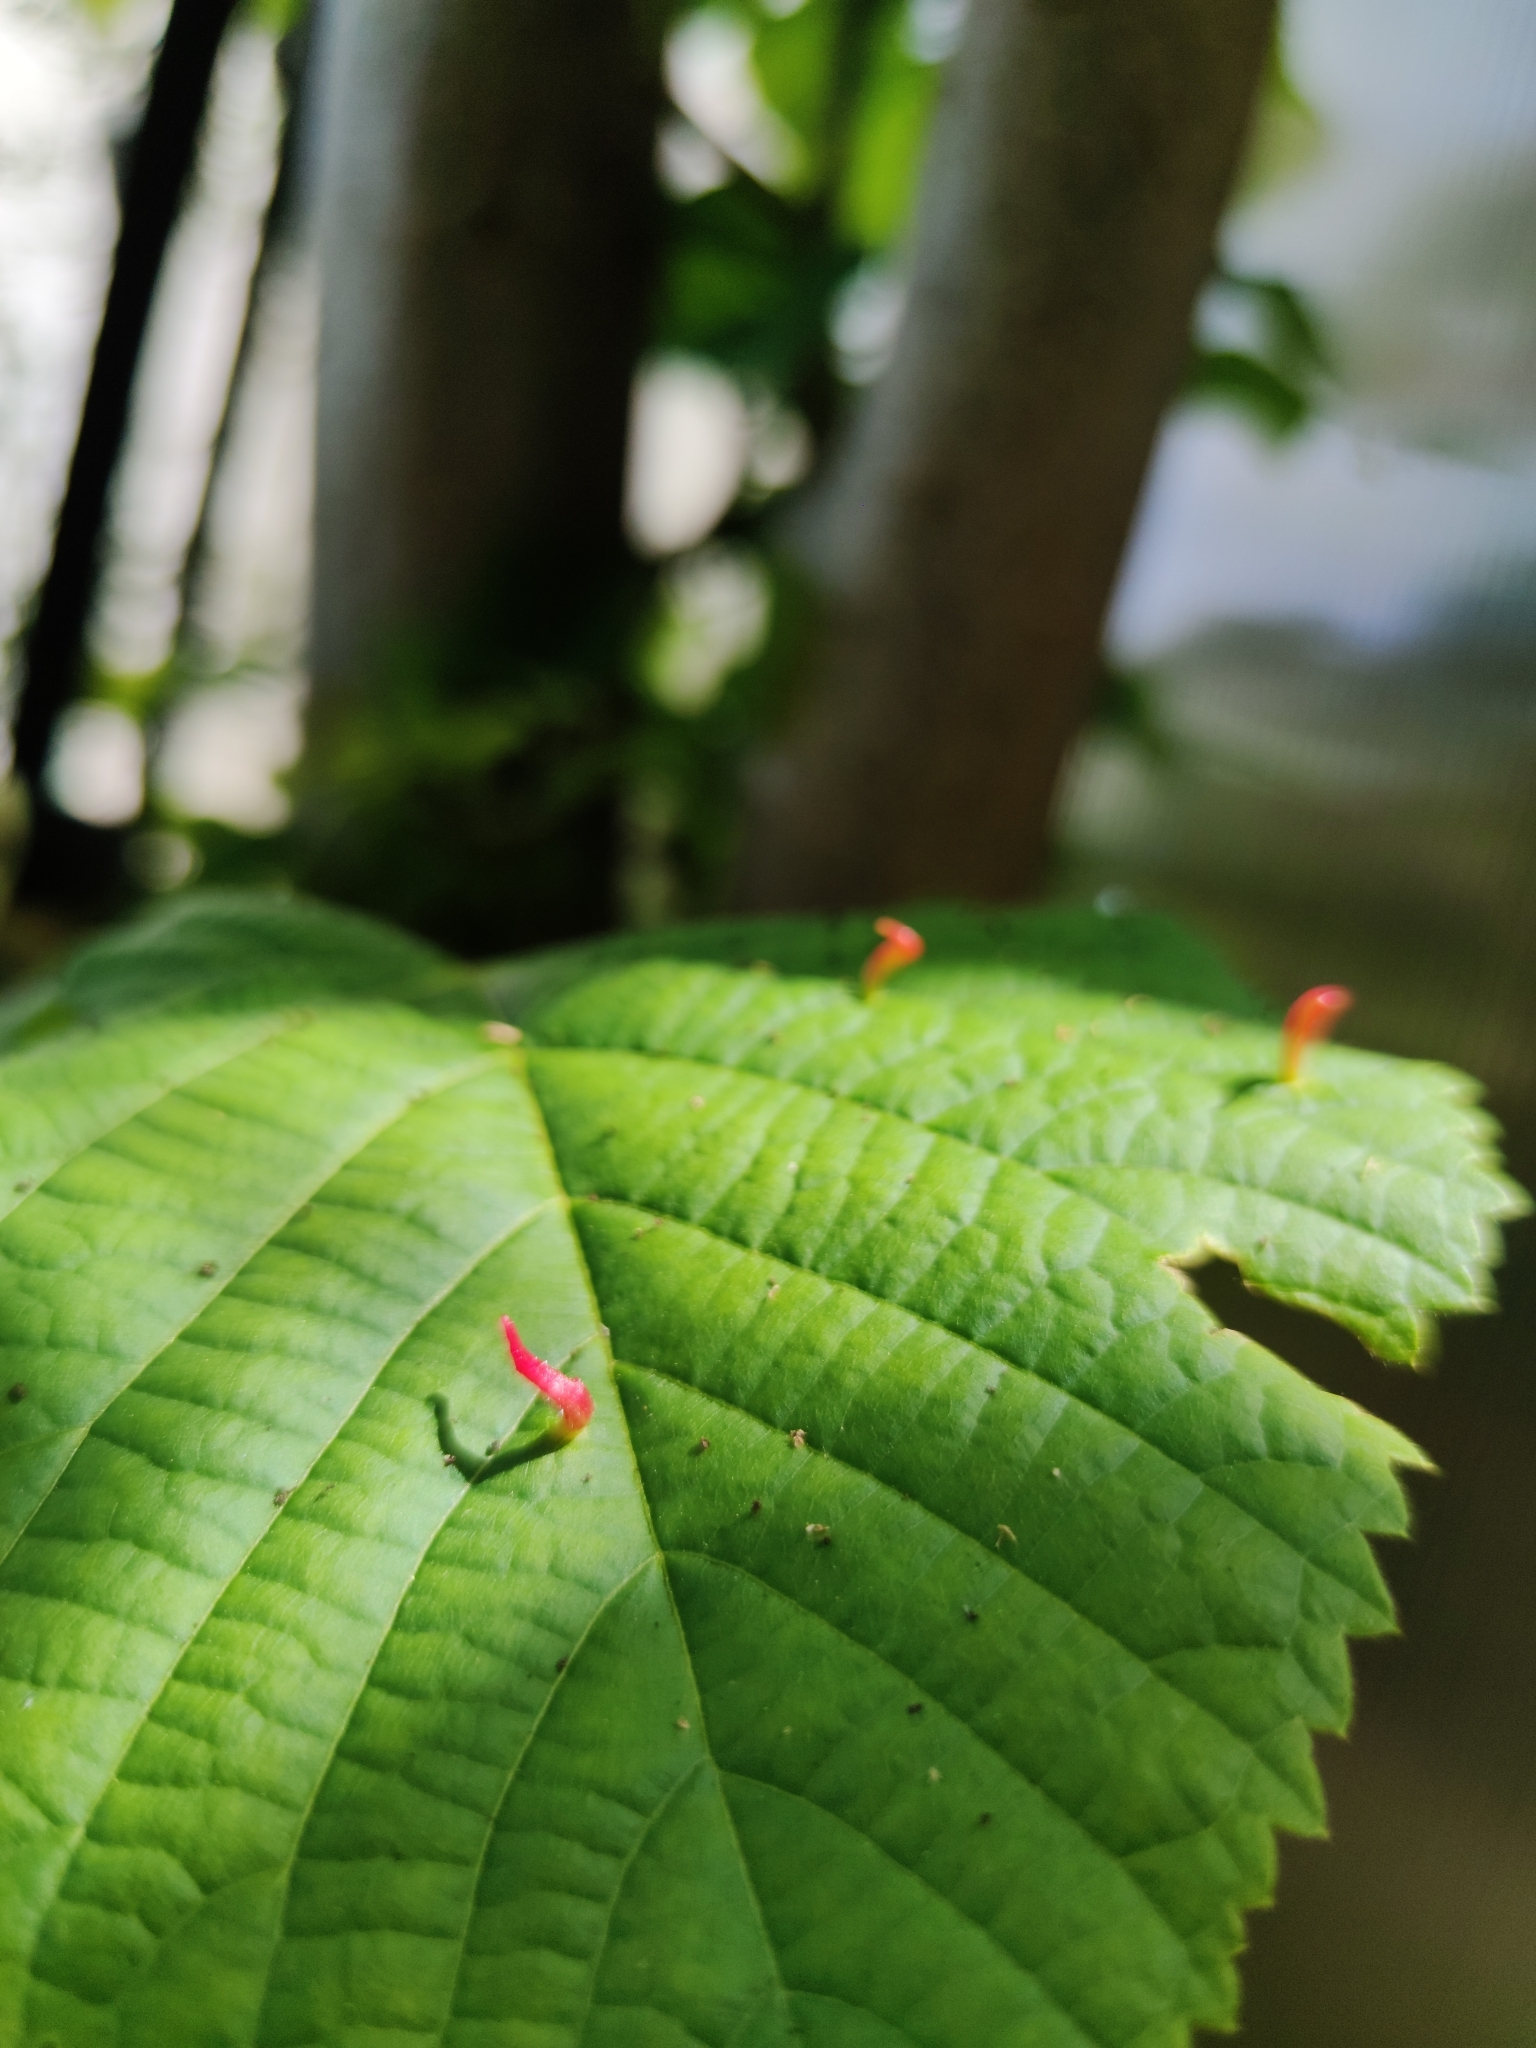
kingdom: Animalia
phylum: Arthropoda
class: Arachnida
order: Trombidiformes
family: Eriophyidae
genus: Eriophyes
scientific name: Eriophyes tiliae
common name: Red nail gall mite
